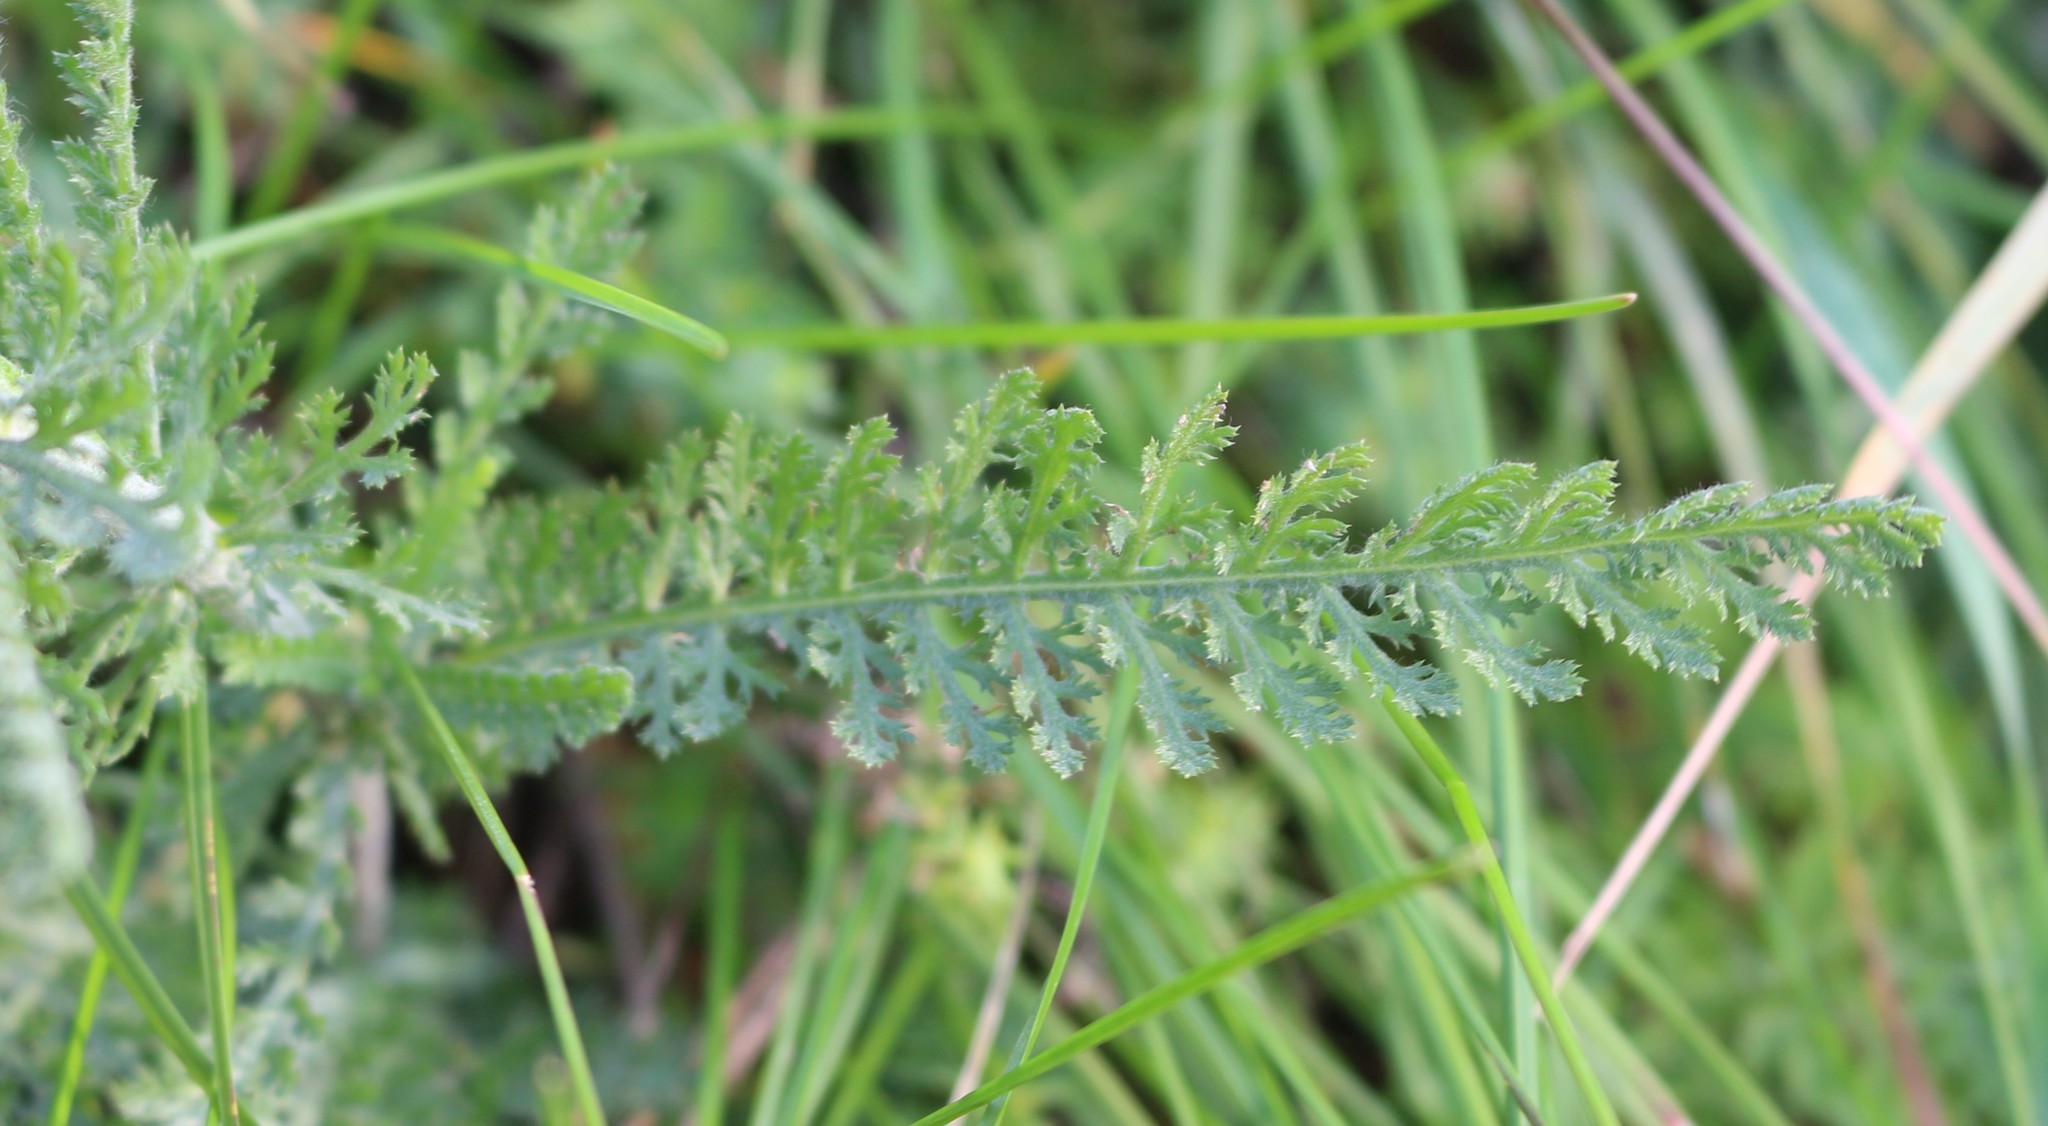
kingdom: Plantae
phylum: Tracheophyta
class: Magnoliopsida
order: Asterales
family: Asteraceae
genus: Achillea
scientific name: Achillea millefolium
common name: Yarrow
